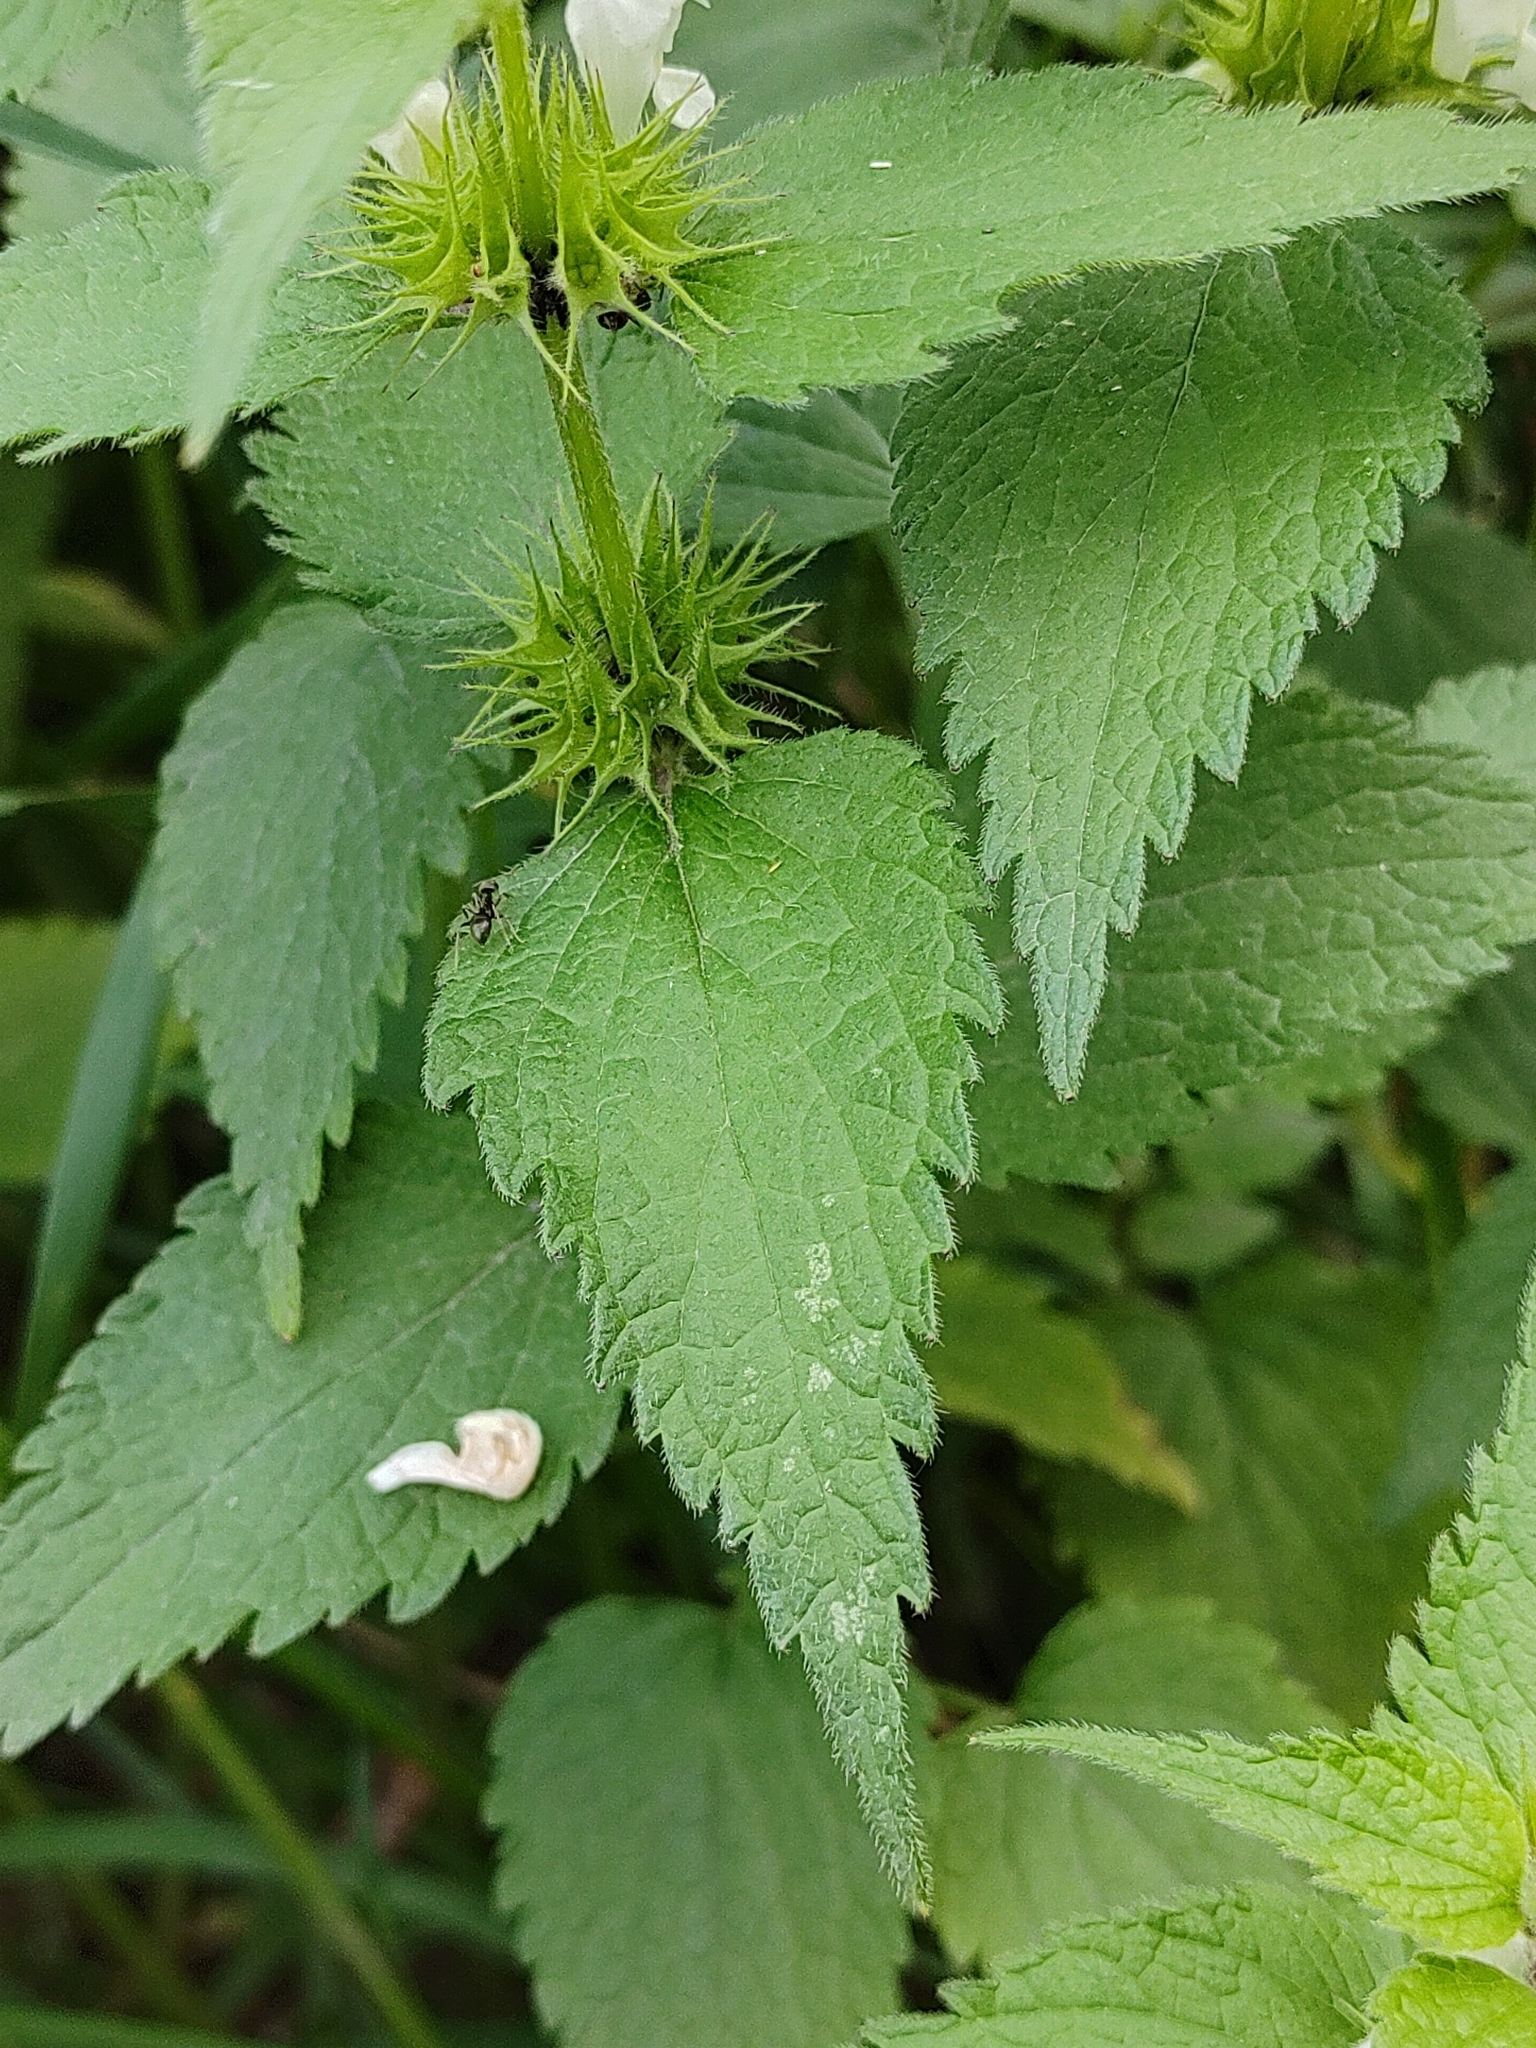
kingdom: Plantae
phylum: Tracheophyta
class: Magnoliopsida
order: Lamiales
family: Lamiaceae
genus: Lamium
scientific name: Lamium album
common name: White dead-nettle
